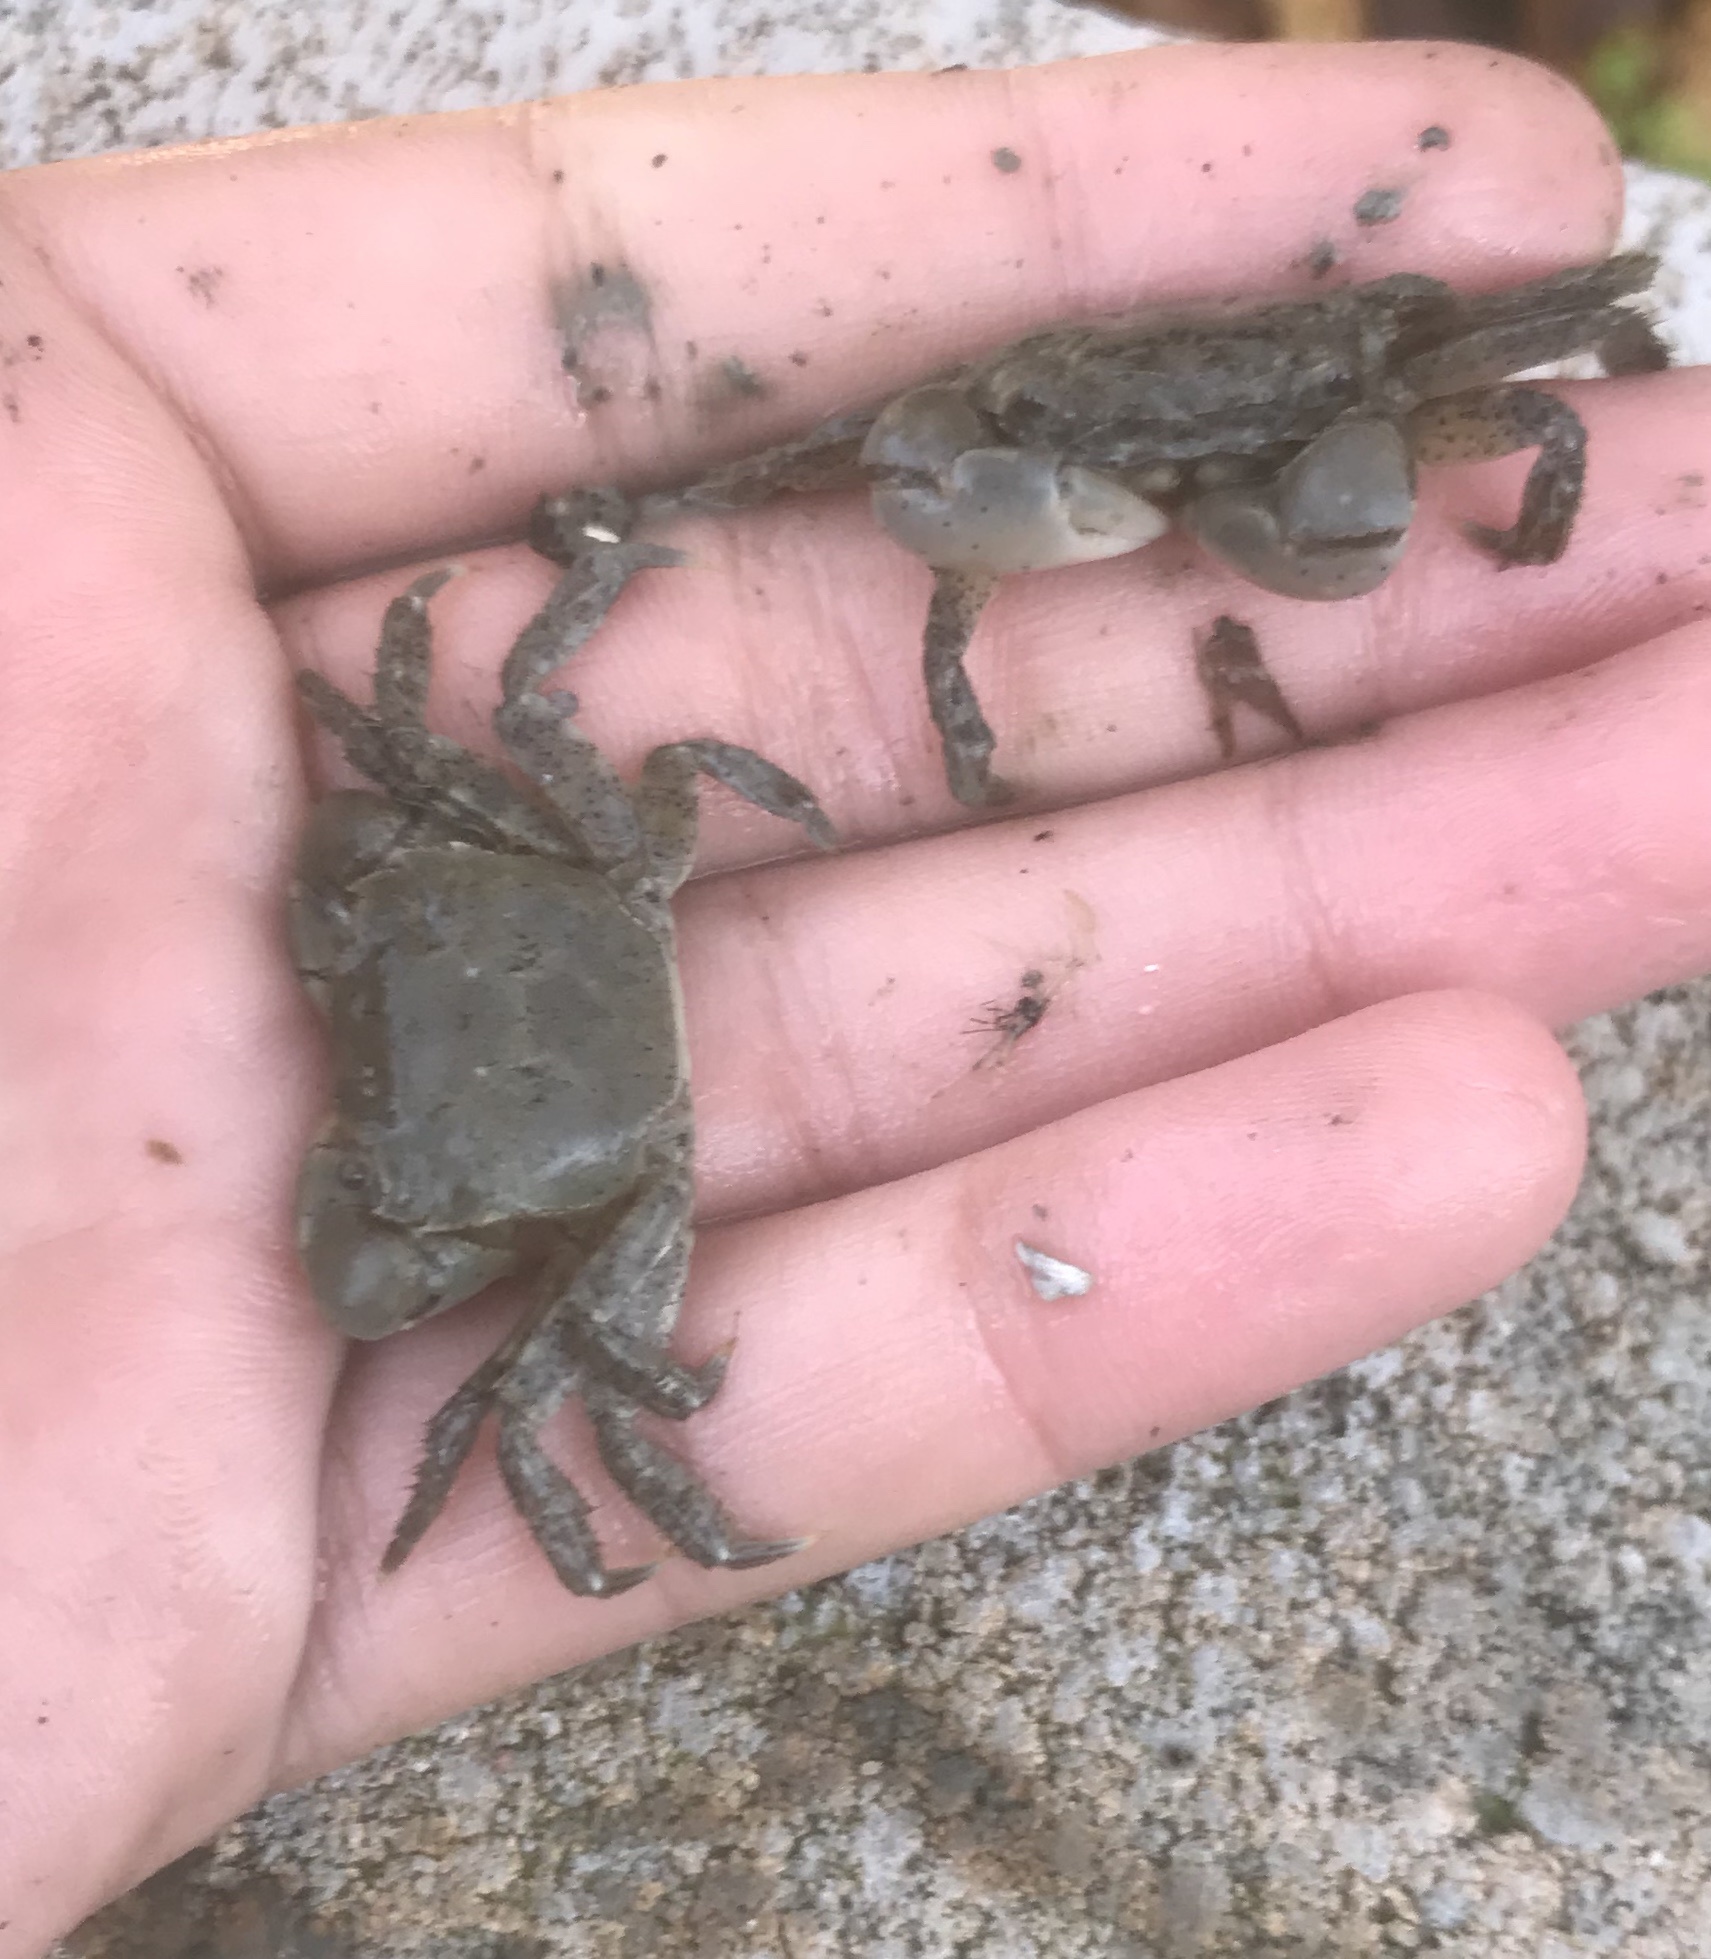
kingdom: Animalia
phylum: Arthropoda
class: Malacostraca
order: Decapoda
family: Varunidae
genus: Hemigrapsus
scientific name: Hemigrapsus oregonensis
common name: Yellow shore crab
